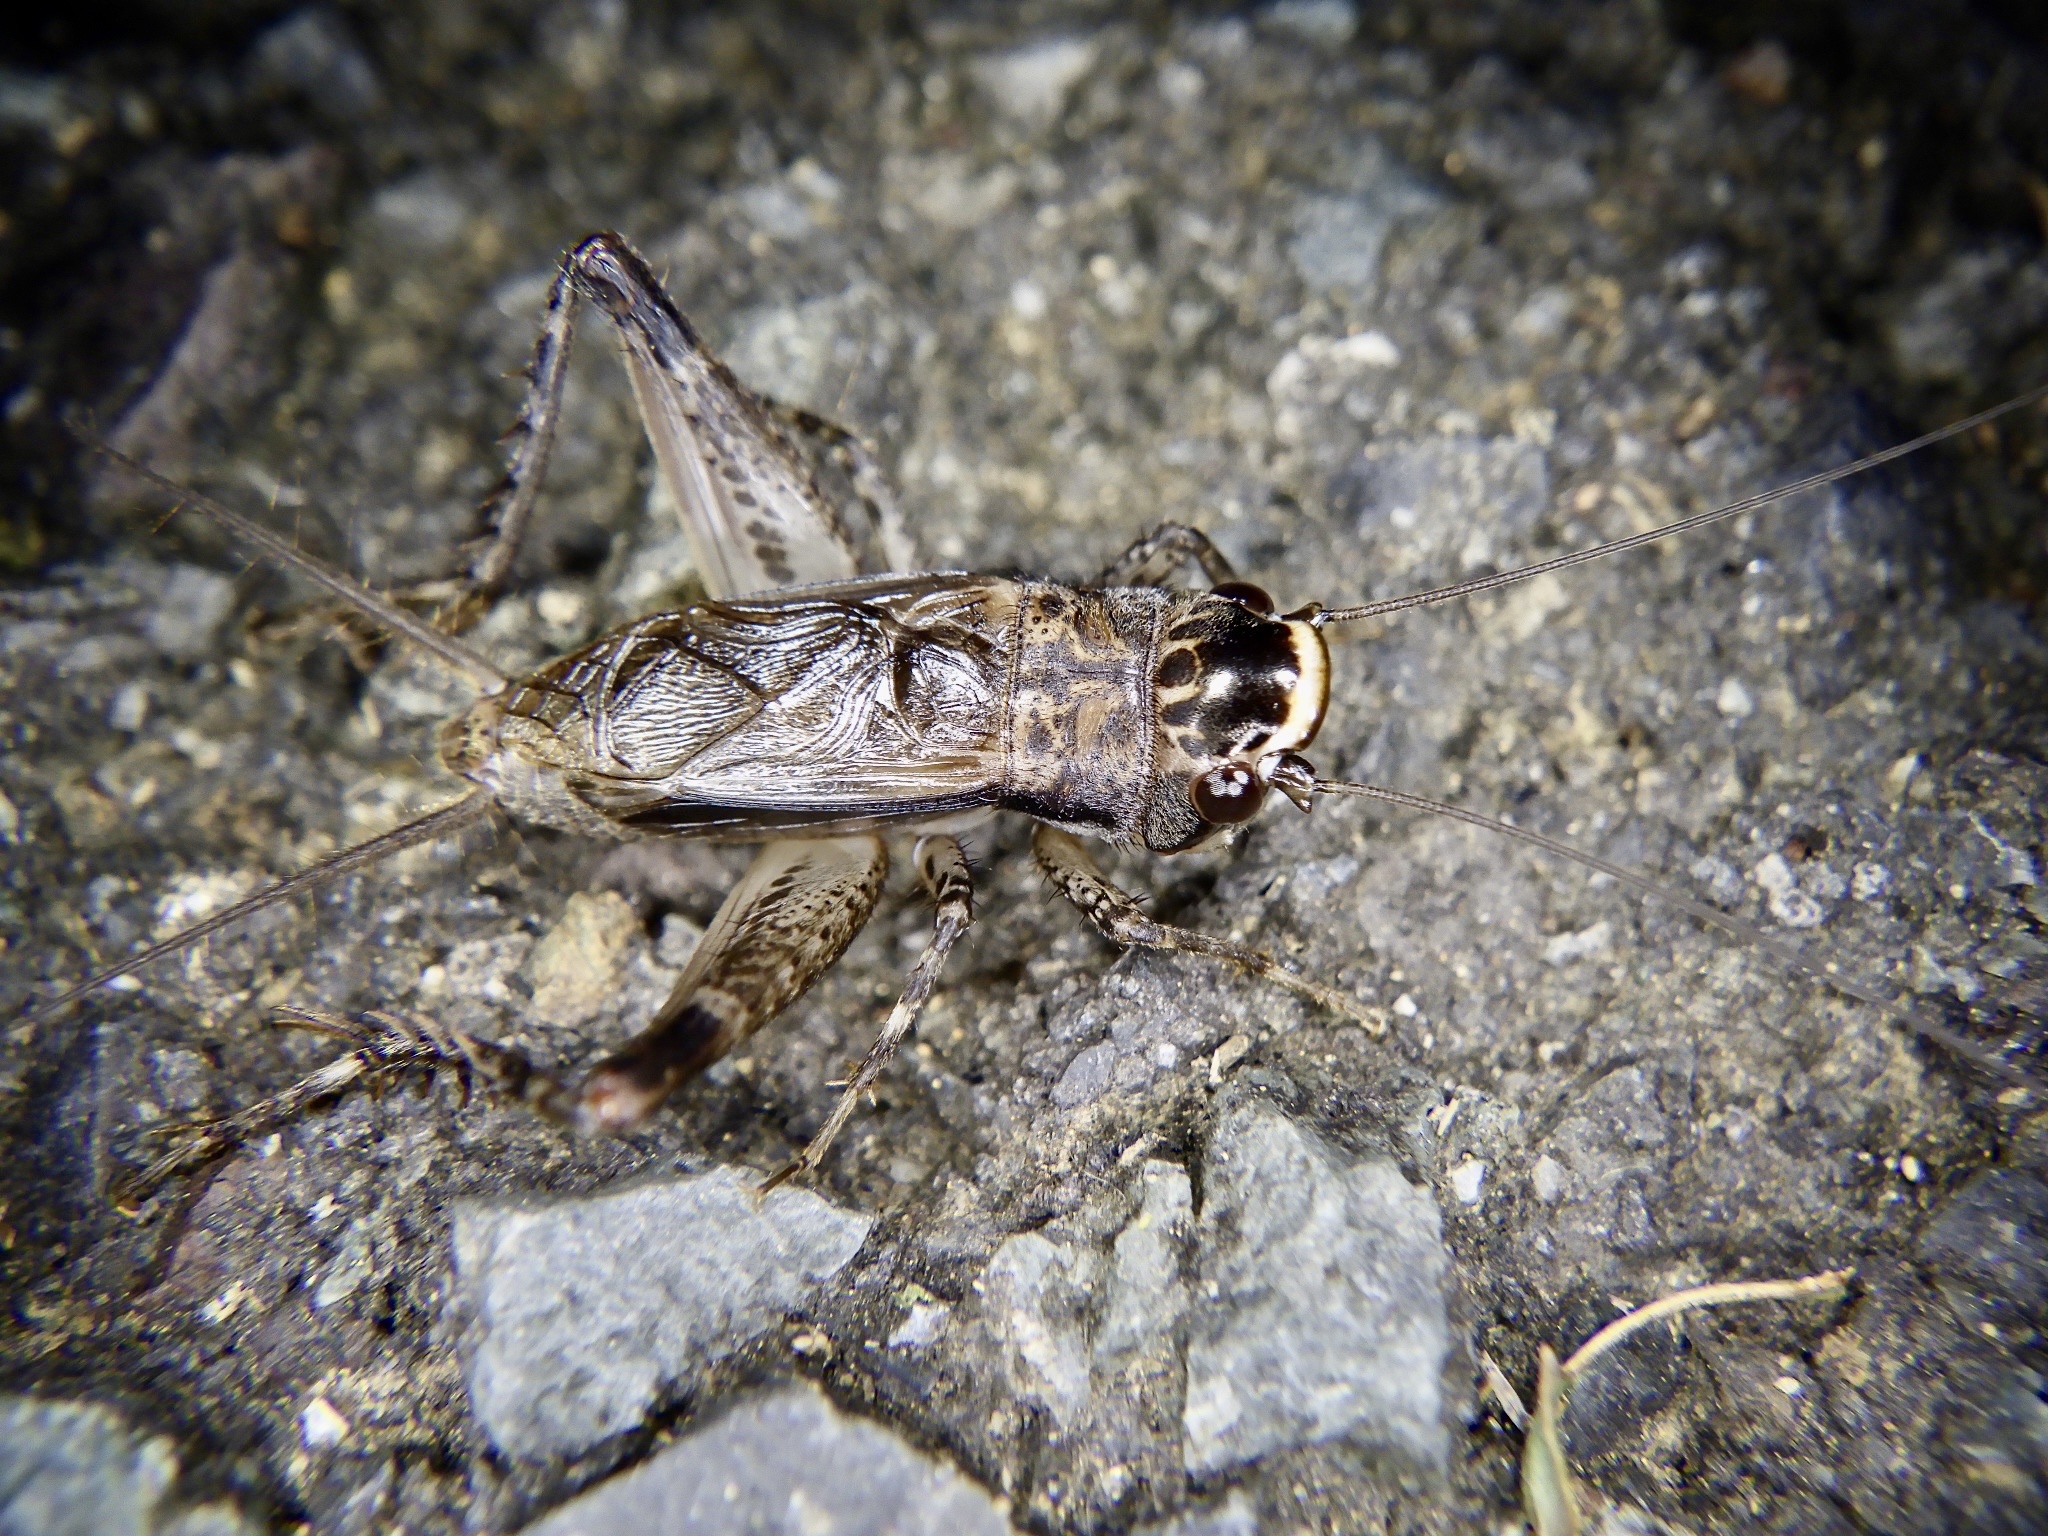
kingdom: Animalia
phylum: Arthropoda
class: Insecta
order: Orthoptera
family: Gryllidae
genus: Loxoblemmus
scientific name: Loxoblemmus sylvestris
